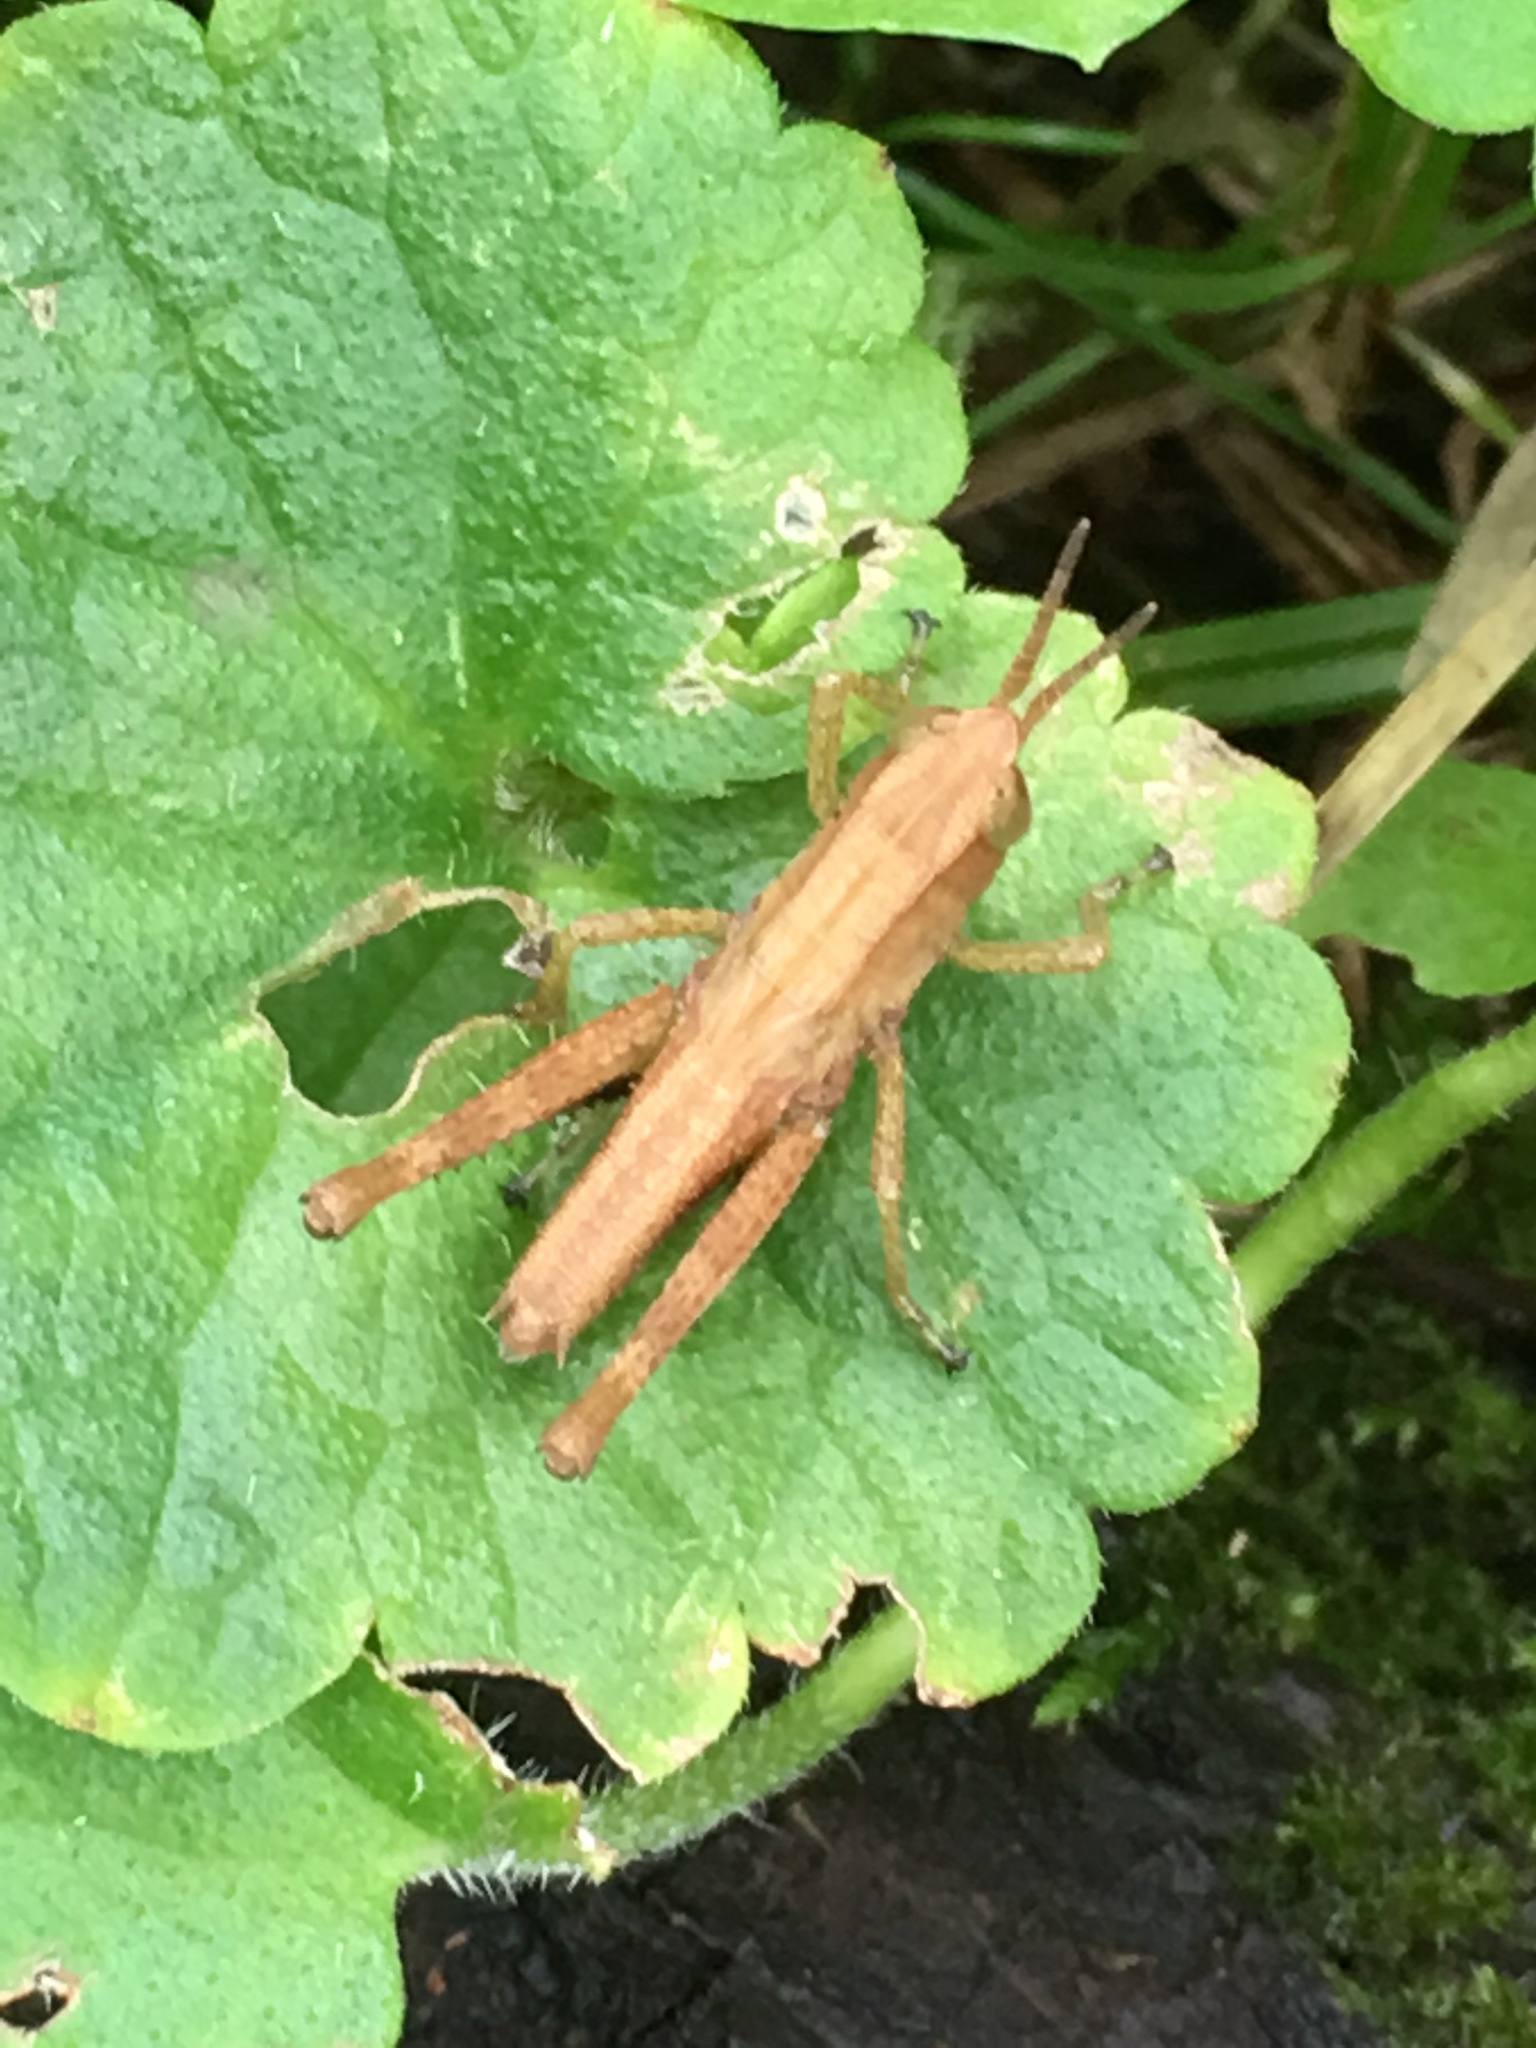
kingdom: Animalia
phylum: Arthropoda
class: Insecta
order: Orthoptera
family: Acrididae
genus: Dichromorpha
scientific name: Dichromorpha viridis
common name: Short-winged green grasshopper
